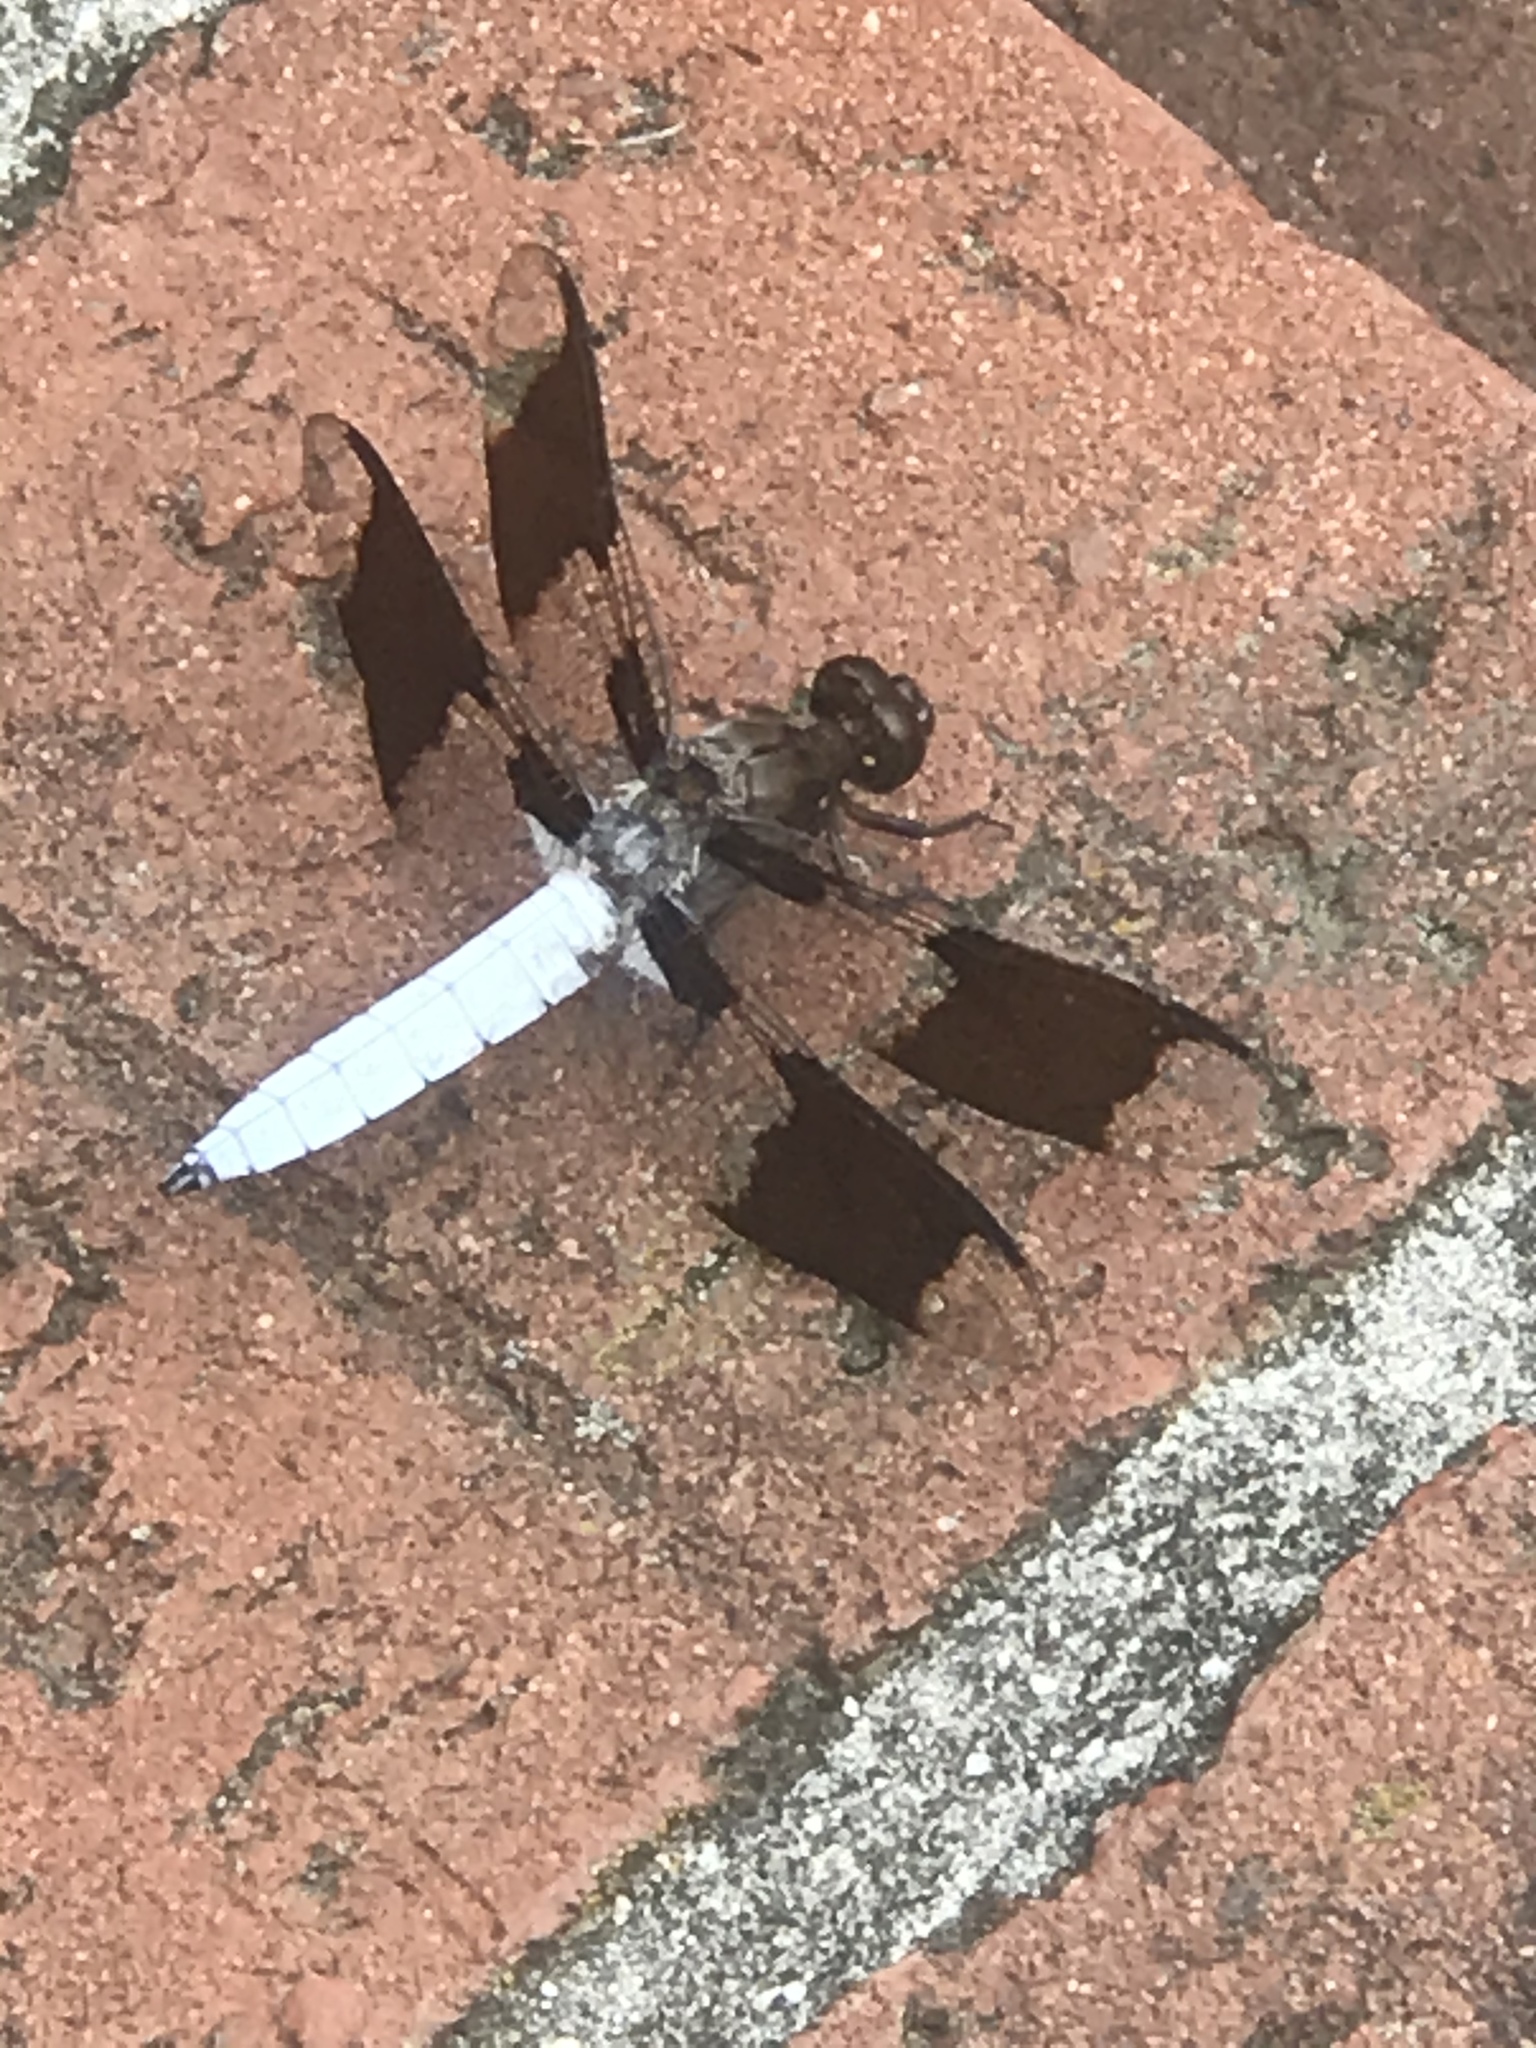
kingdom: Animalia
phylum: Arthropoda
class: Insecta
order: Odonata
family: Libellulidae
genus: Plathemis
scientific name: Plathemis lydia
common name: Common whitetail
